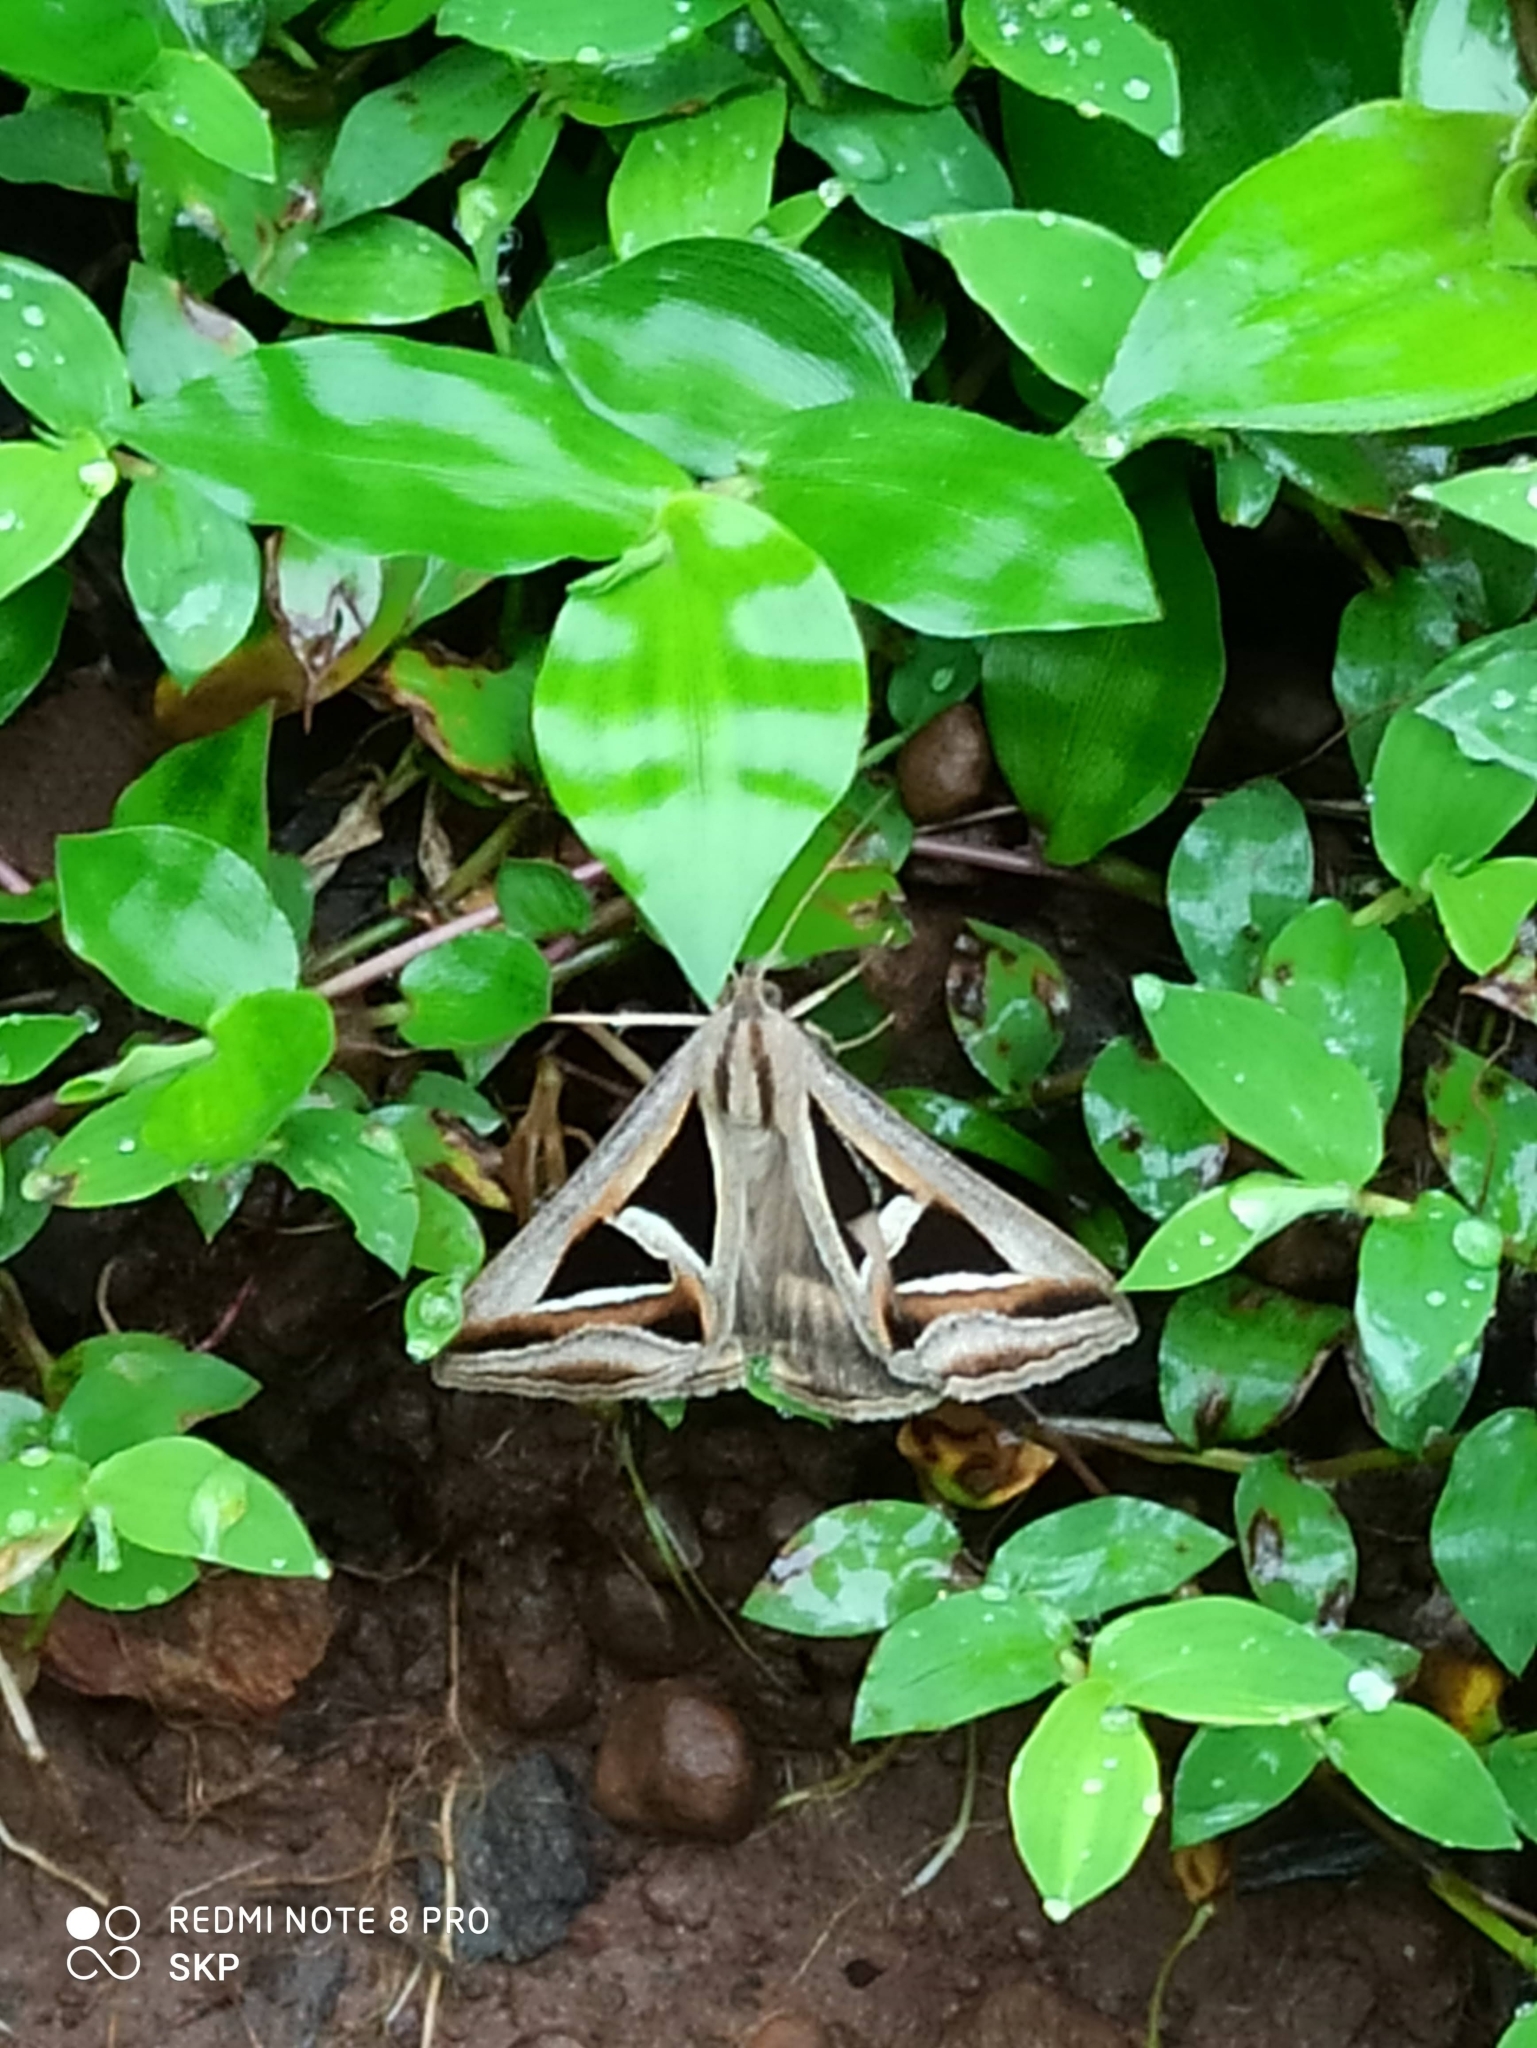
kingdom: Animalia
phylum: Arthropoda
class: Insecta
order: Lepidoptera
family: Erebidae
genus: Trigonodes
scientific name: Trigonodes hyppasia
